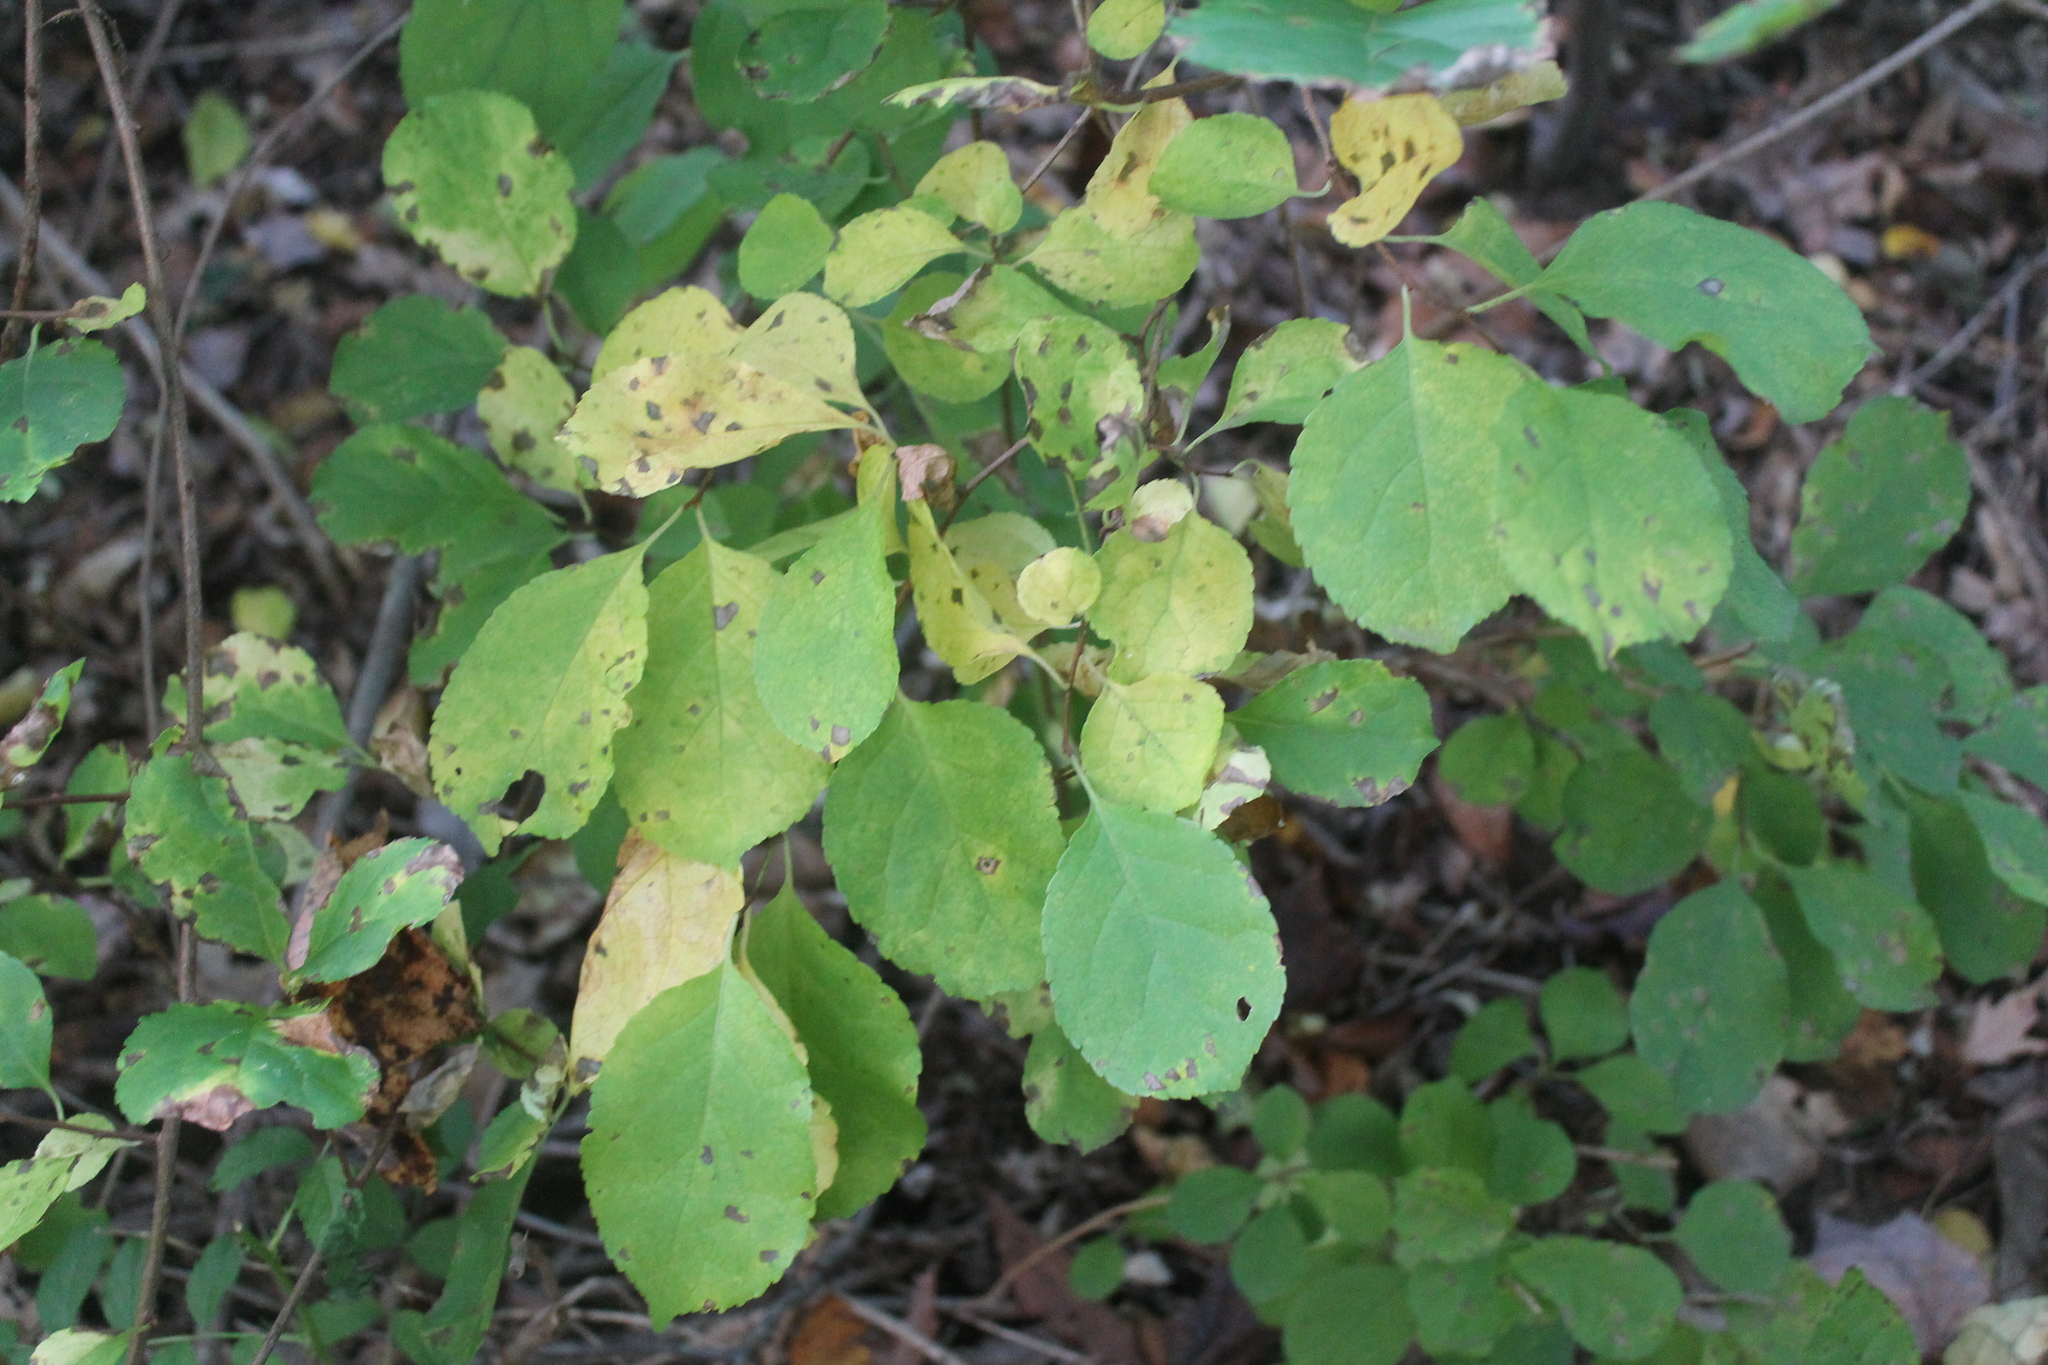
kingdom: Plantae
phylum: Tracheophyta
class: Magnoliopsida
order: Celastrales
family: Celastraceae
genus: Celastrus
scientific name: Celastrus orbiculatus
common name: Oriental bittersweet
